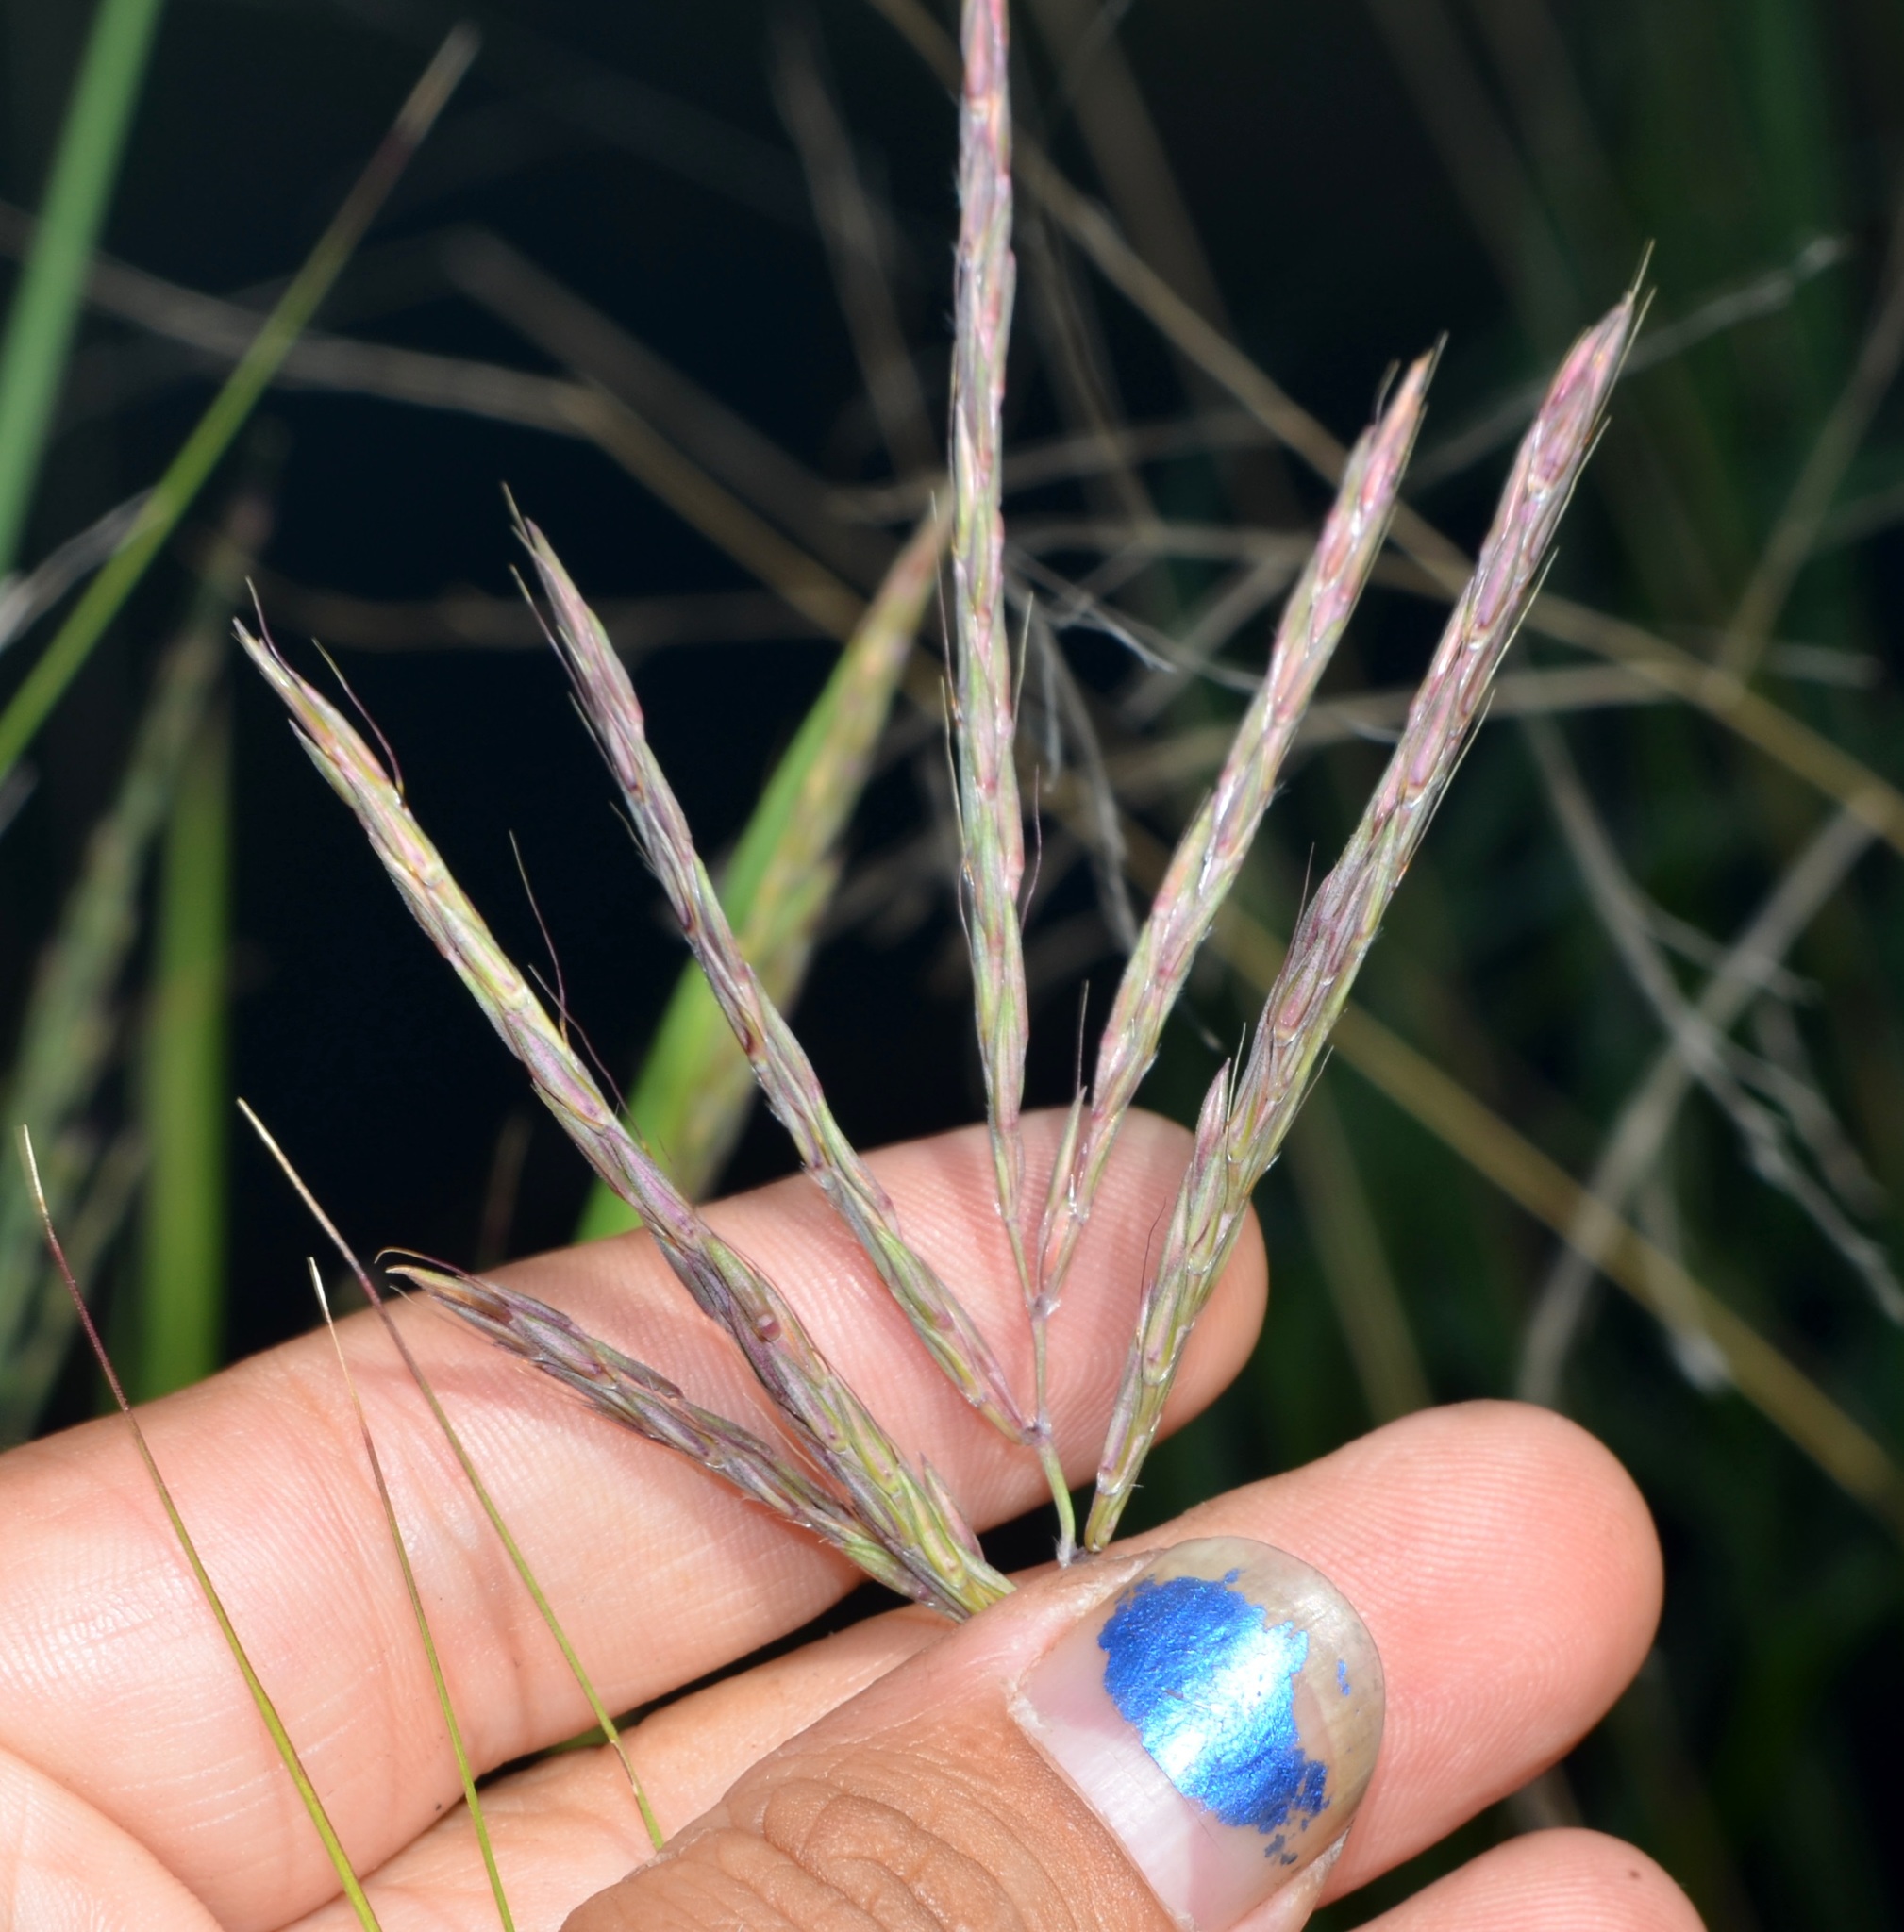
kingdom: Plantae
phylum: Tracheophyta
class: Liliopsida
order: Poales
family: Poaceae
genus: Andropogon
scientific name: Andropogon gerardi
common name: Big bluestem
